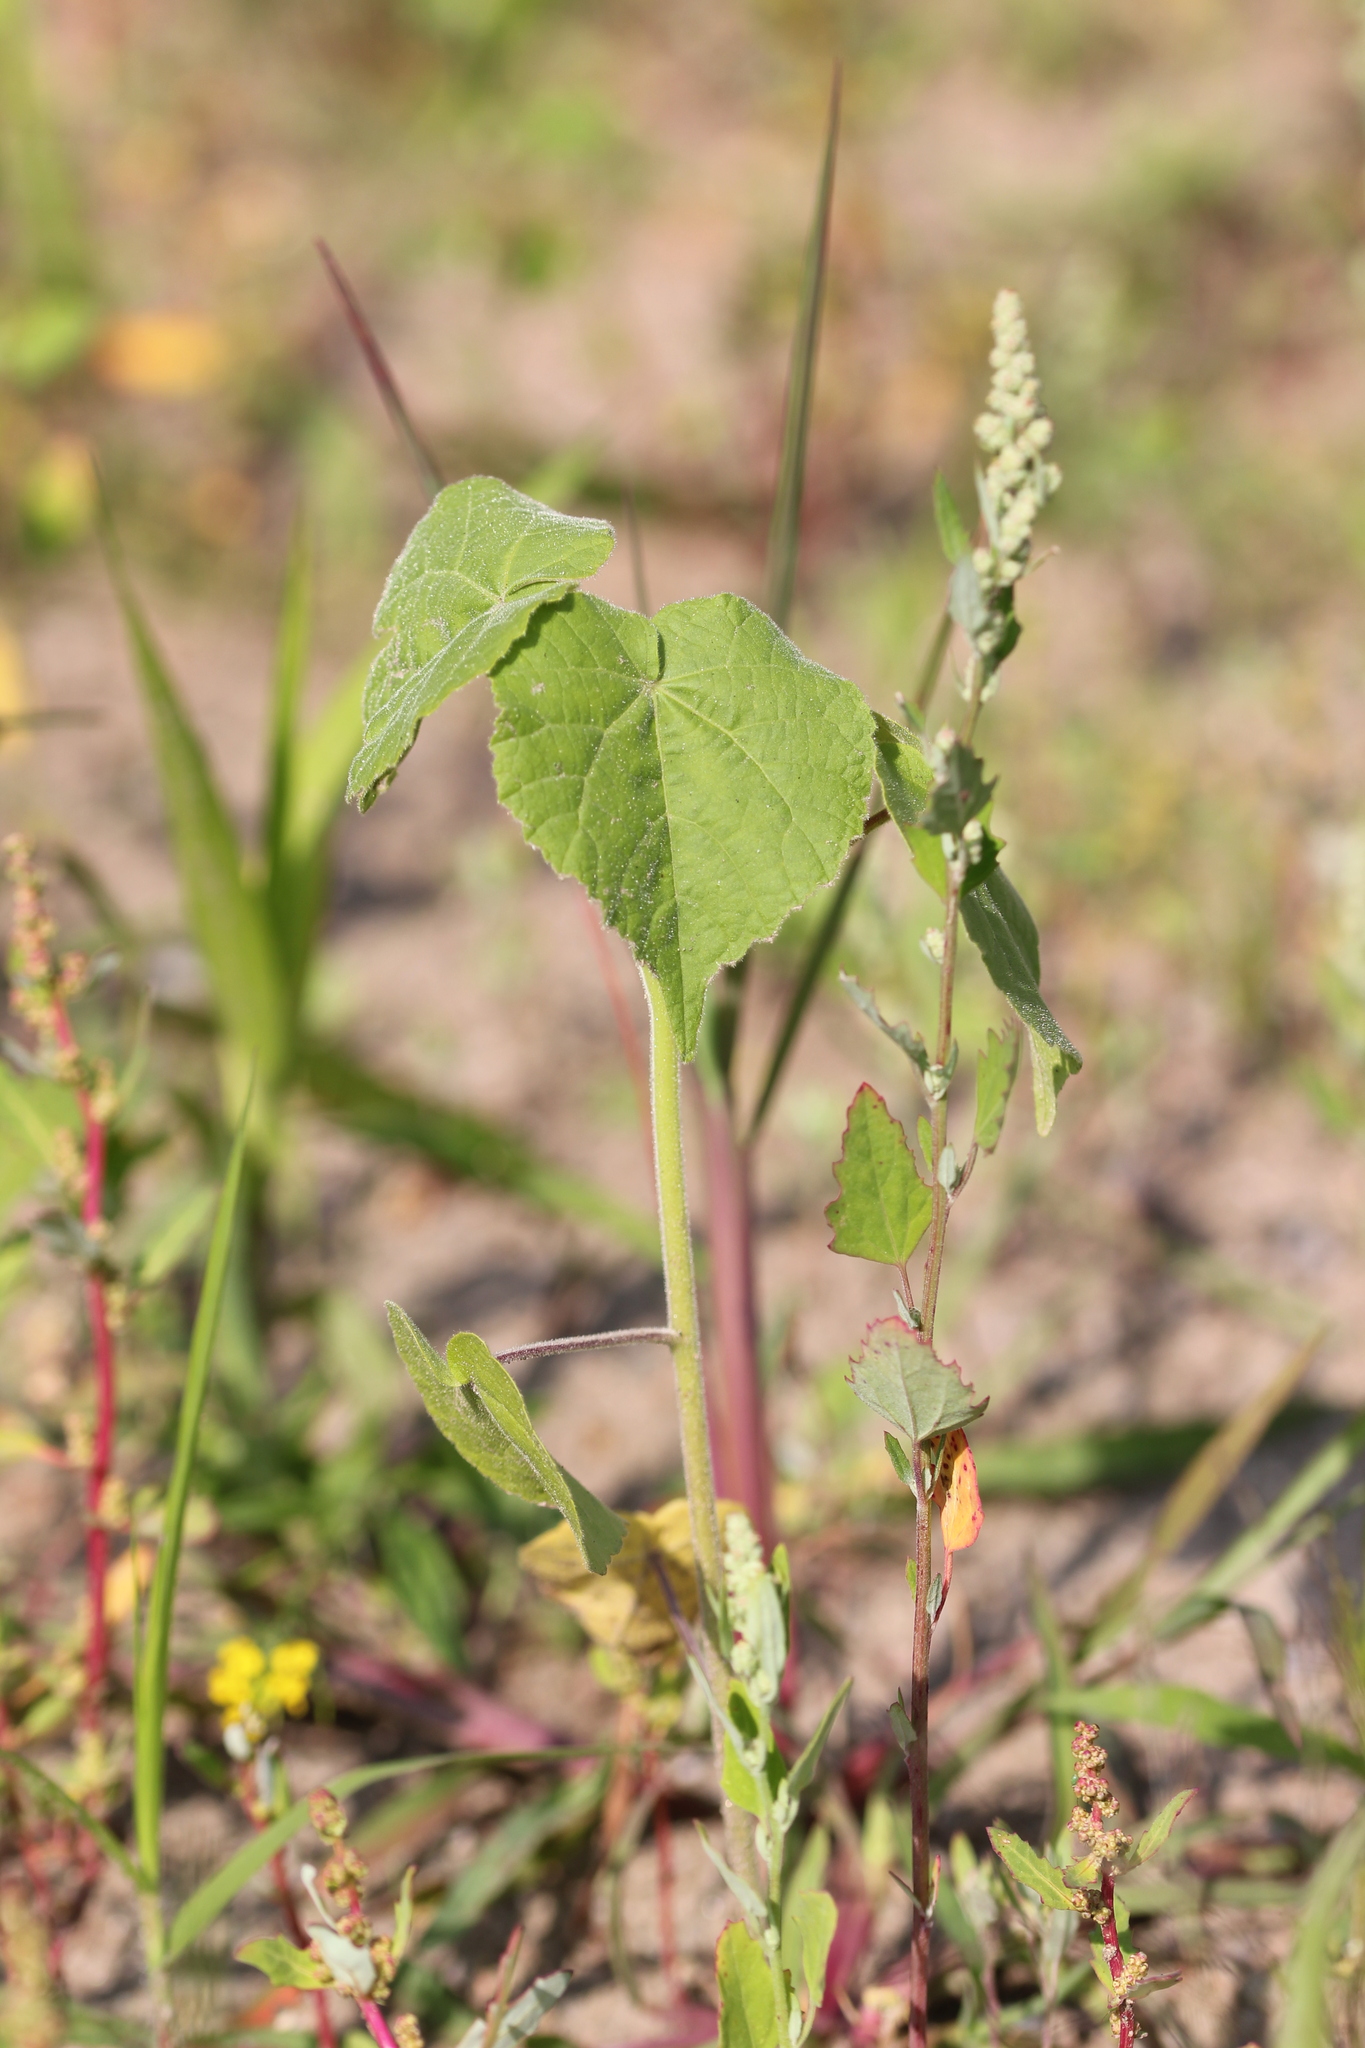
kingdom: Plantae
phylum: Tracheophyta
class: Magnoliopsida
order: Malvales
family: Malvaceae
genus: Abutilon
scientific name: Abutilon theophrasti
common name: Velvetleaf
